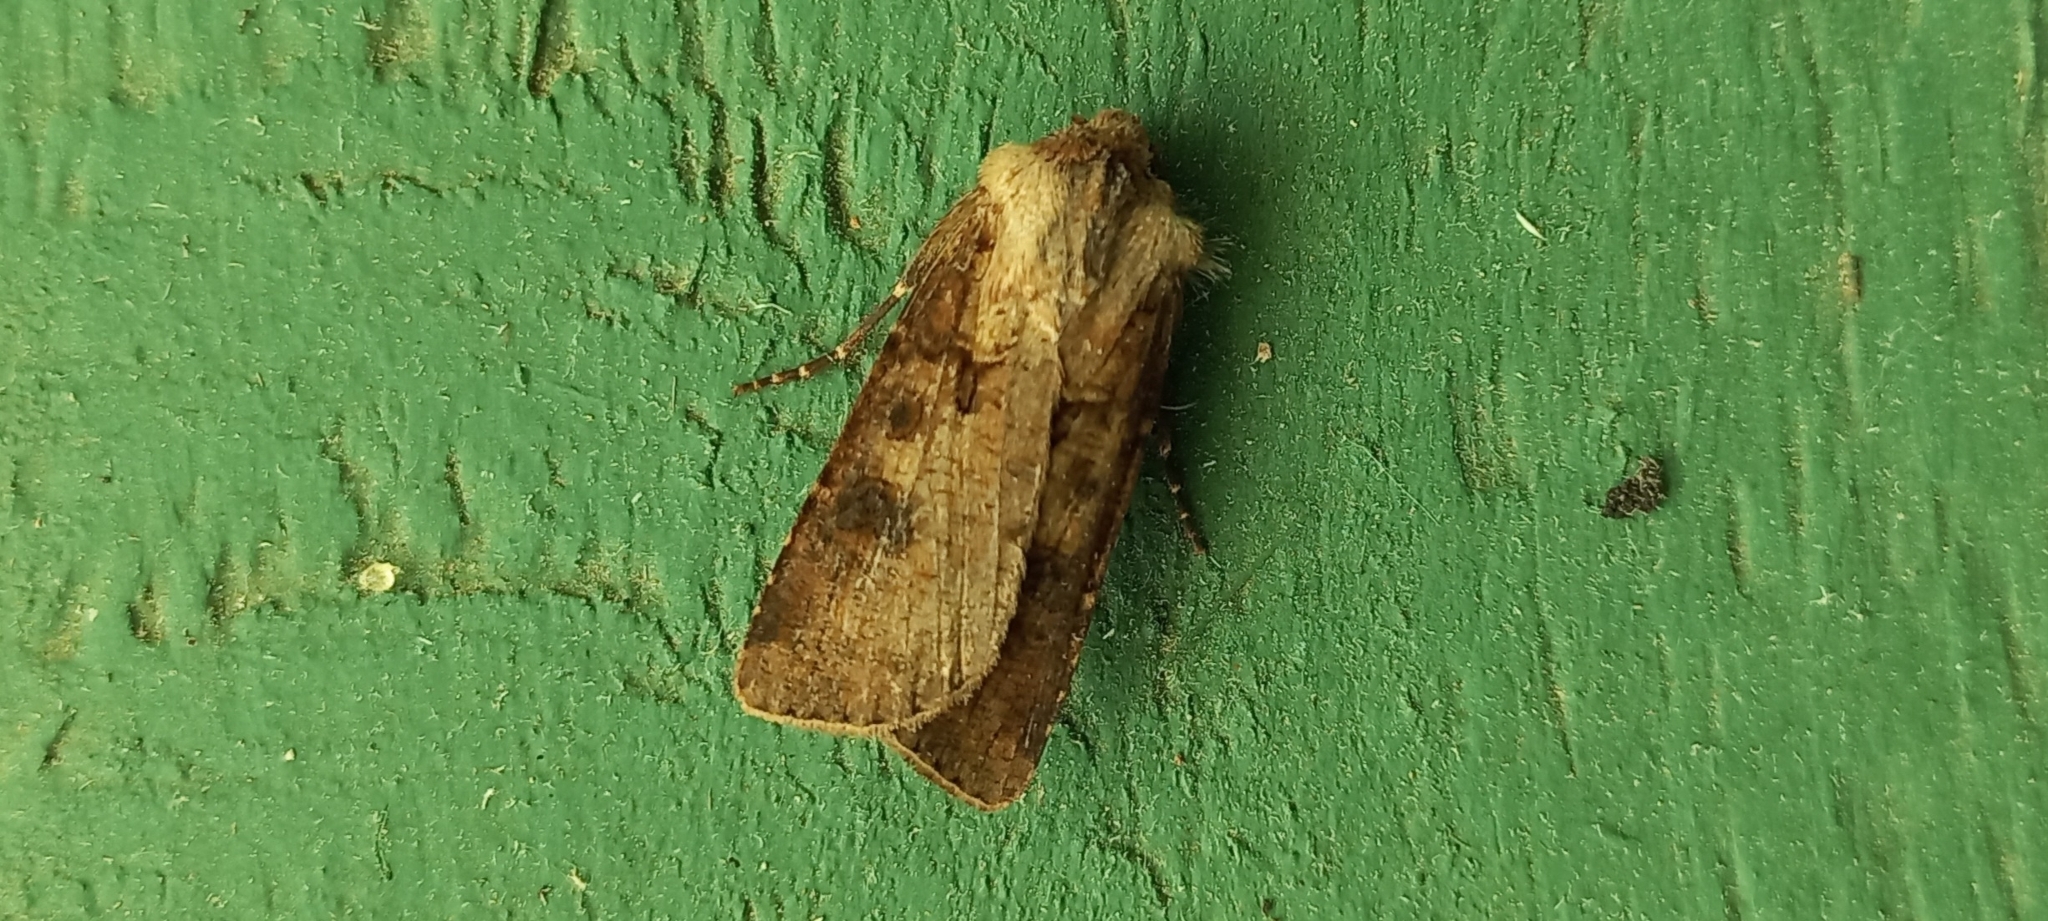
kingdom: Animalia
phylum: Arthropoda
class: Insecta
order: Lepidoptera
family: Noctuidae
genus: Agrotis
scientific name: Agrotis clavis
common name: Heart and club
